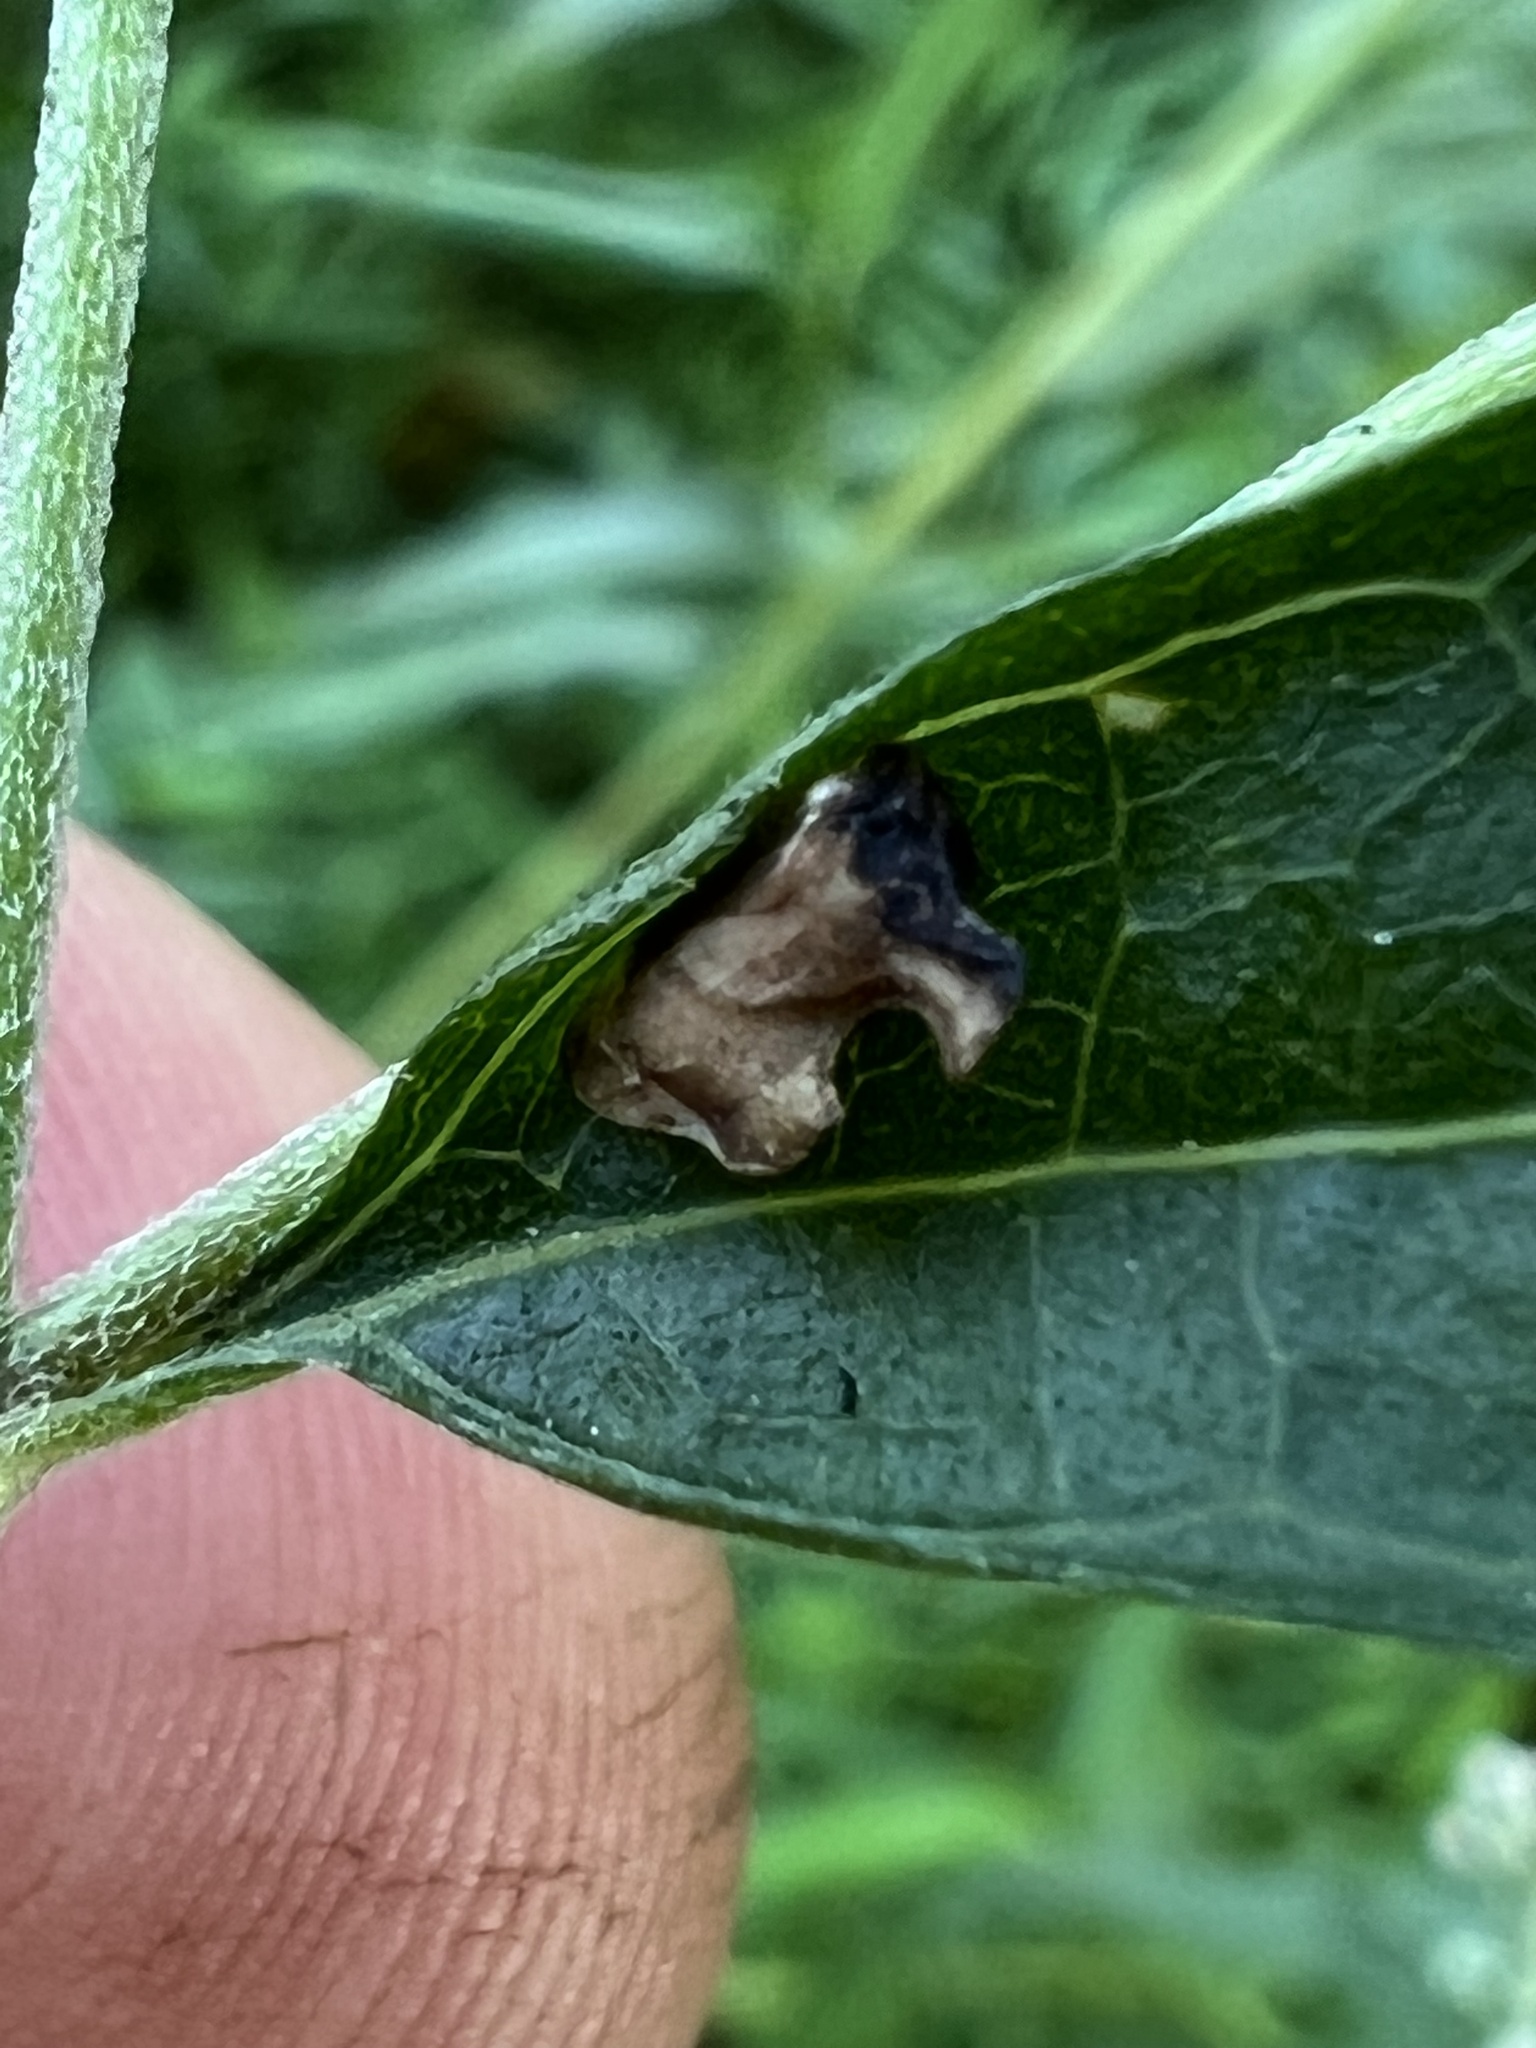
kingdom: Animalia
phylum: Arthropoda
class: Insecta
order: Hemiptera
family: Membracidae
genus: Entylia
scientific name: Entylia carinata
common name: Keeled treehopper
